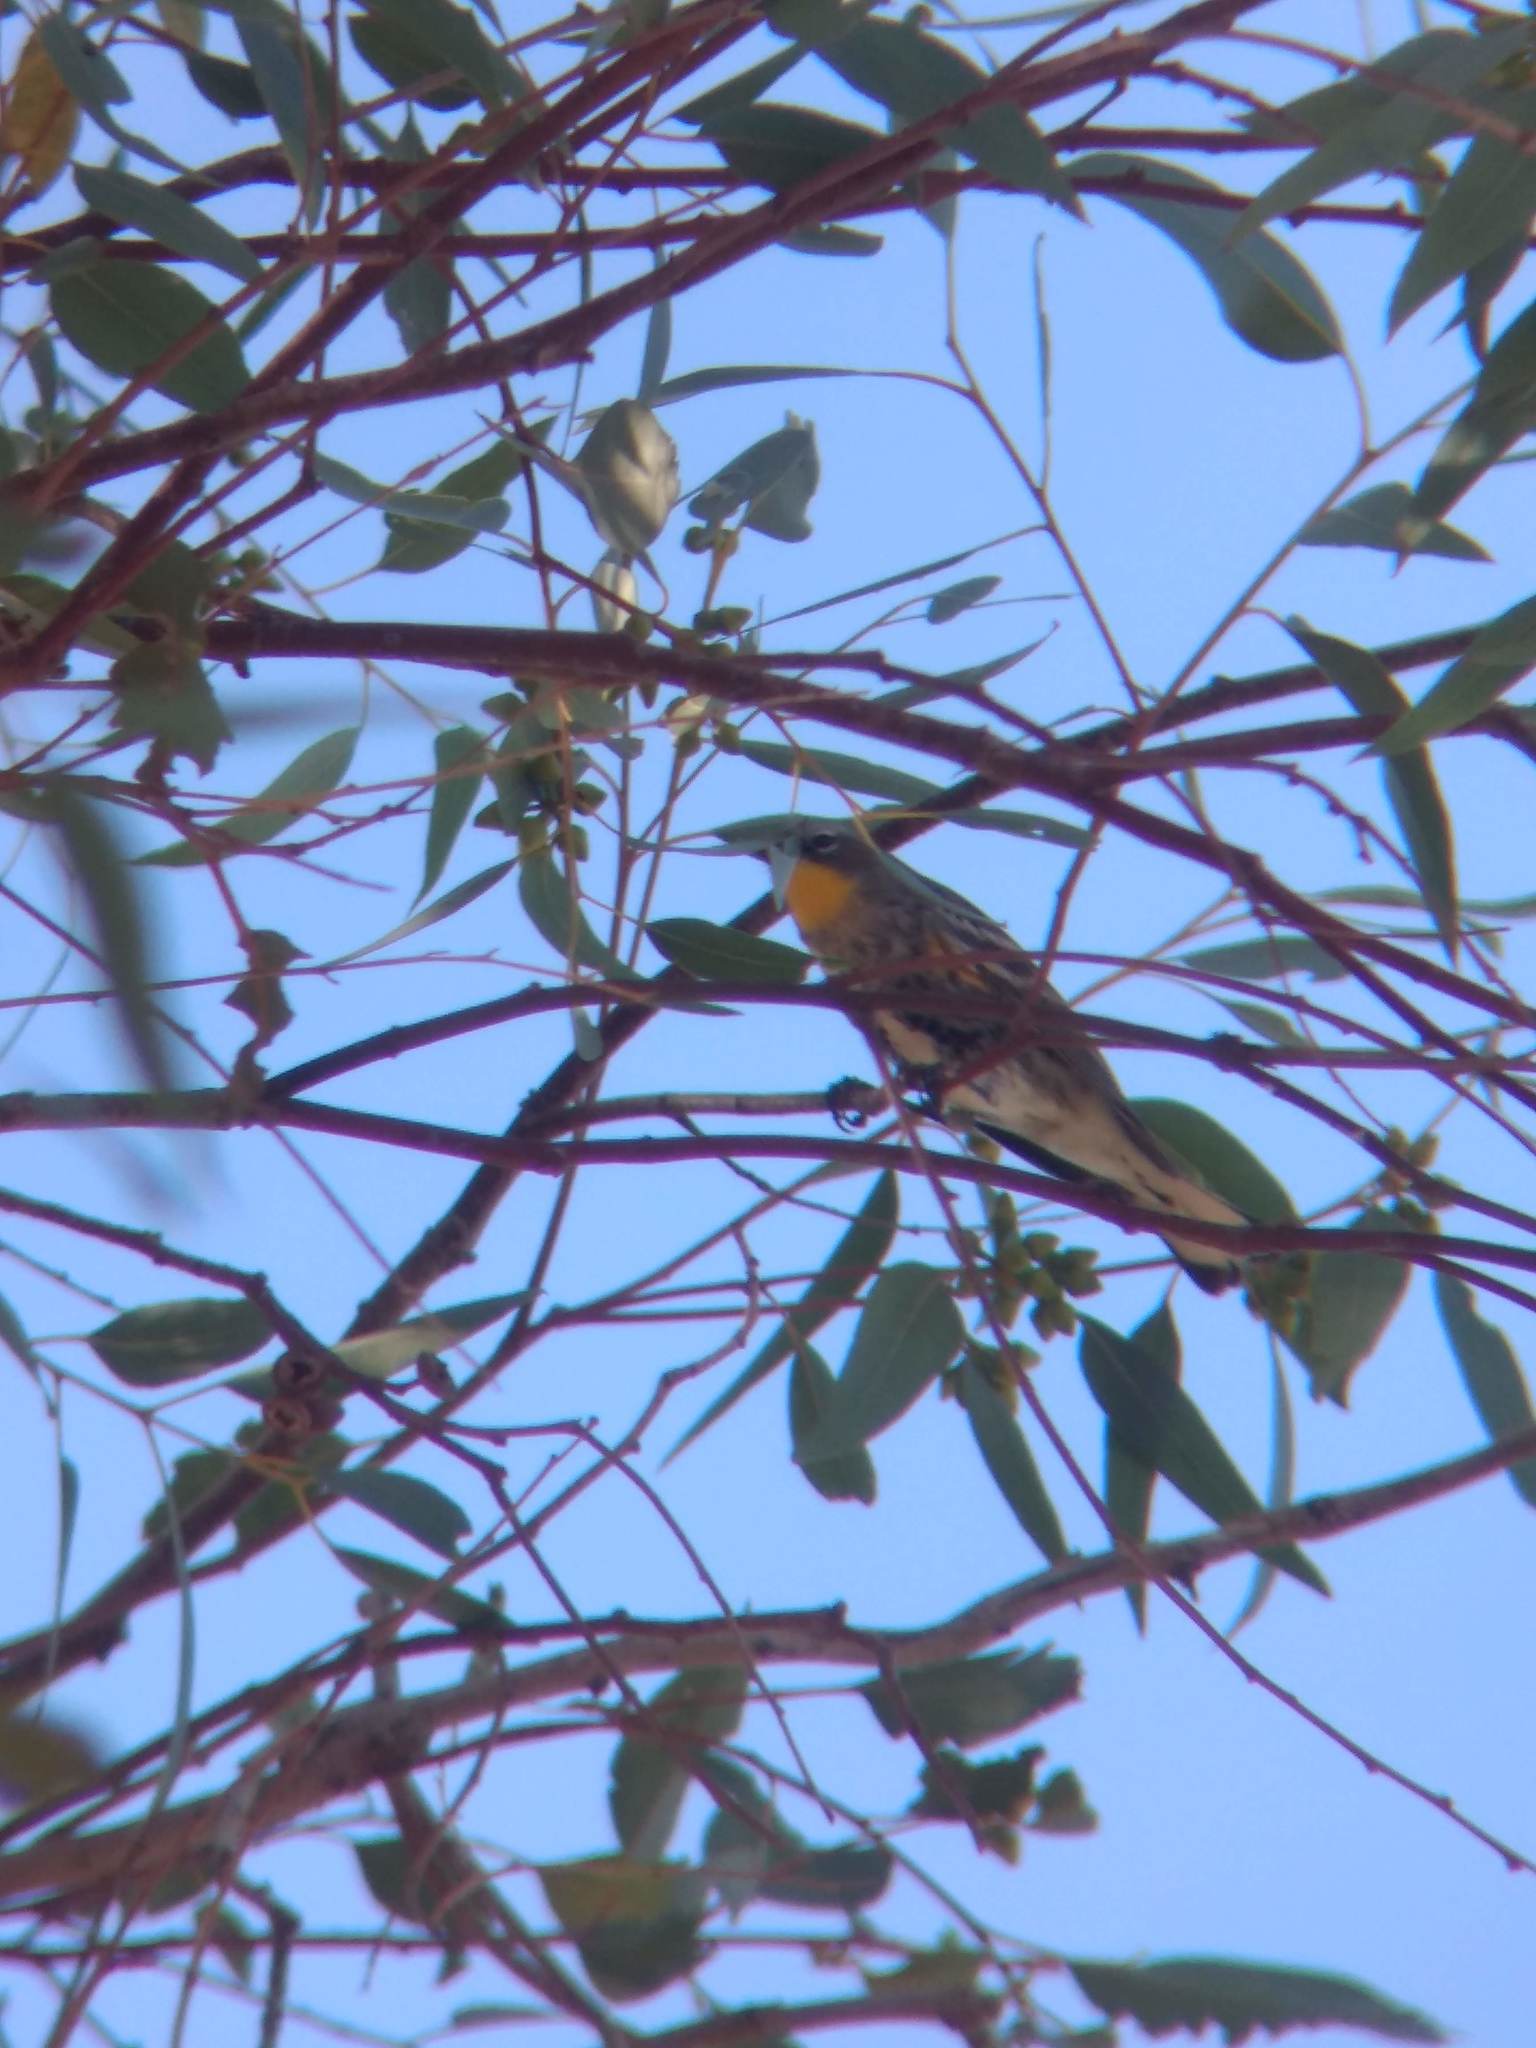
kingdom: Animalia
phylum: Chordata
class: Aves
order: Passeriformes
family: Parulidae
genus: Setophaga
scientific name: Setophaga coronata
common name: Myrtle warbler
